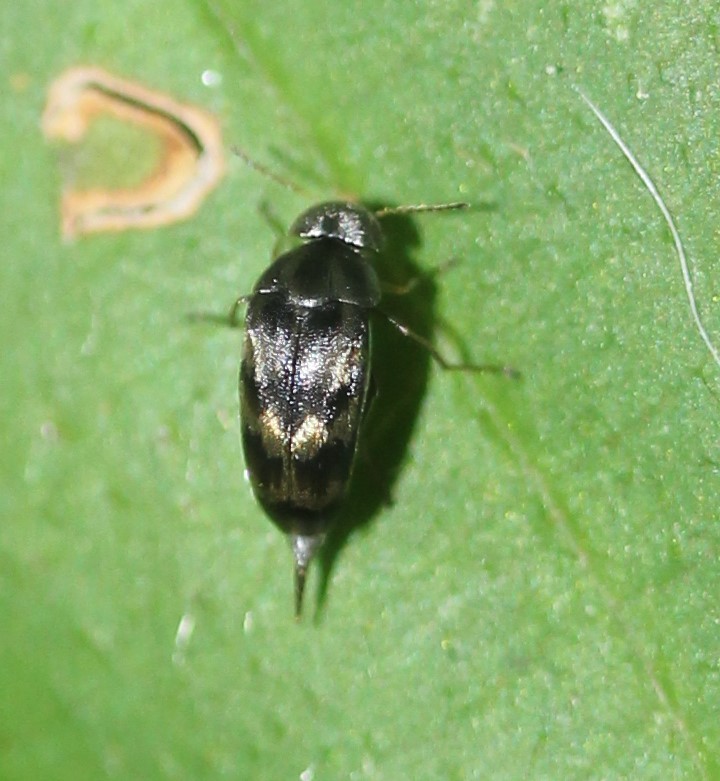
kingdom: Animalia
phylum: Arthropoda
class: Insecta
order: Coleoptera
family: Mordellidae
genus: Paramordellaria
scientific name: Paramordellaria triloba
